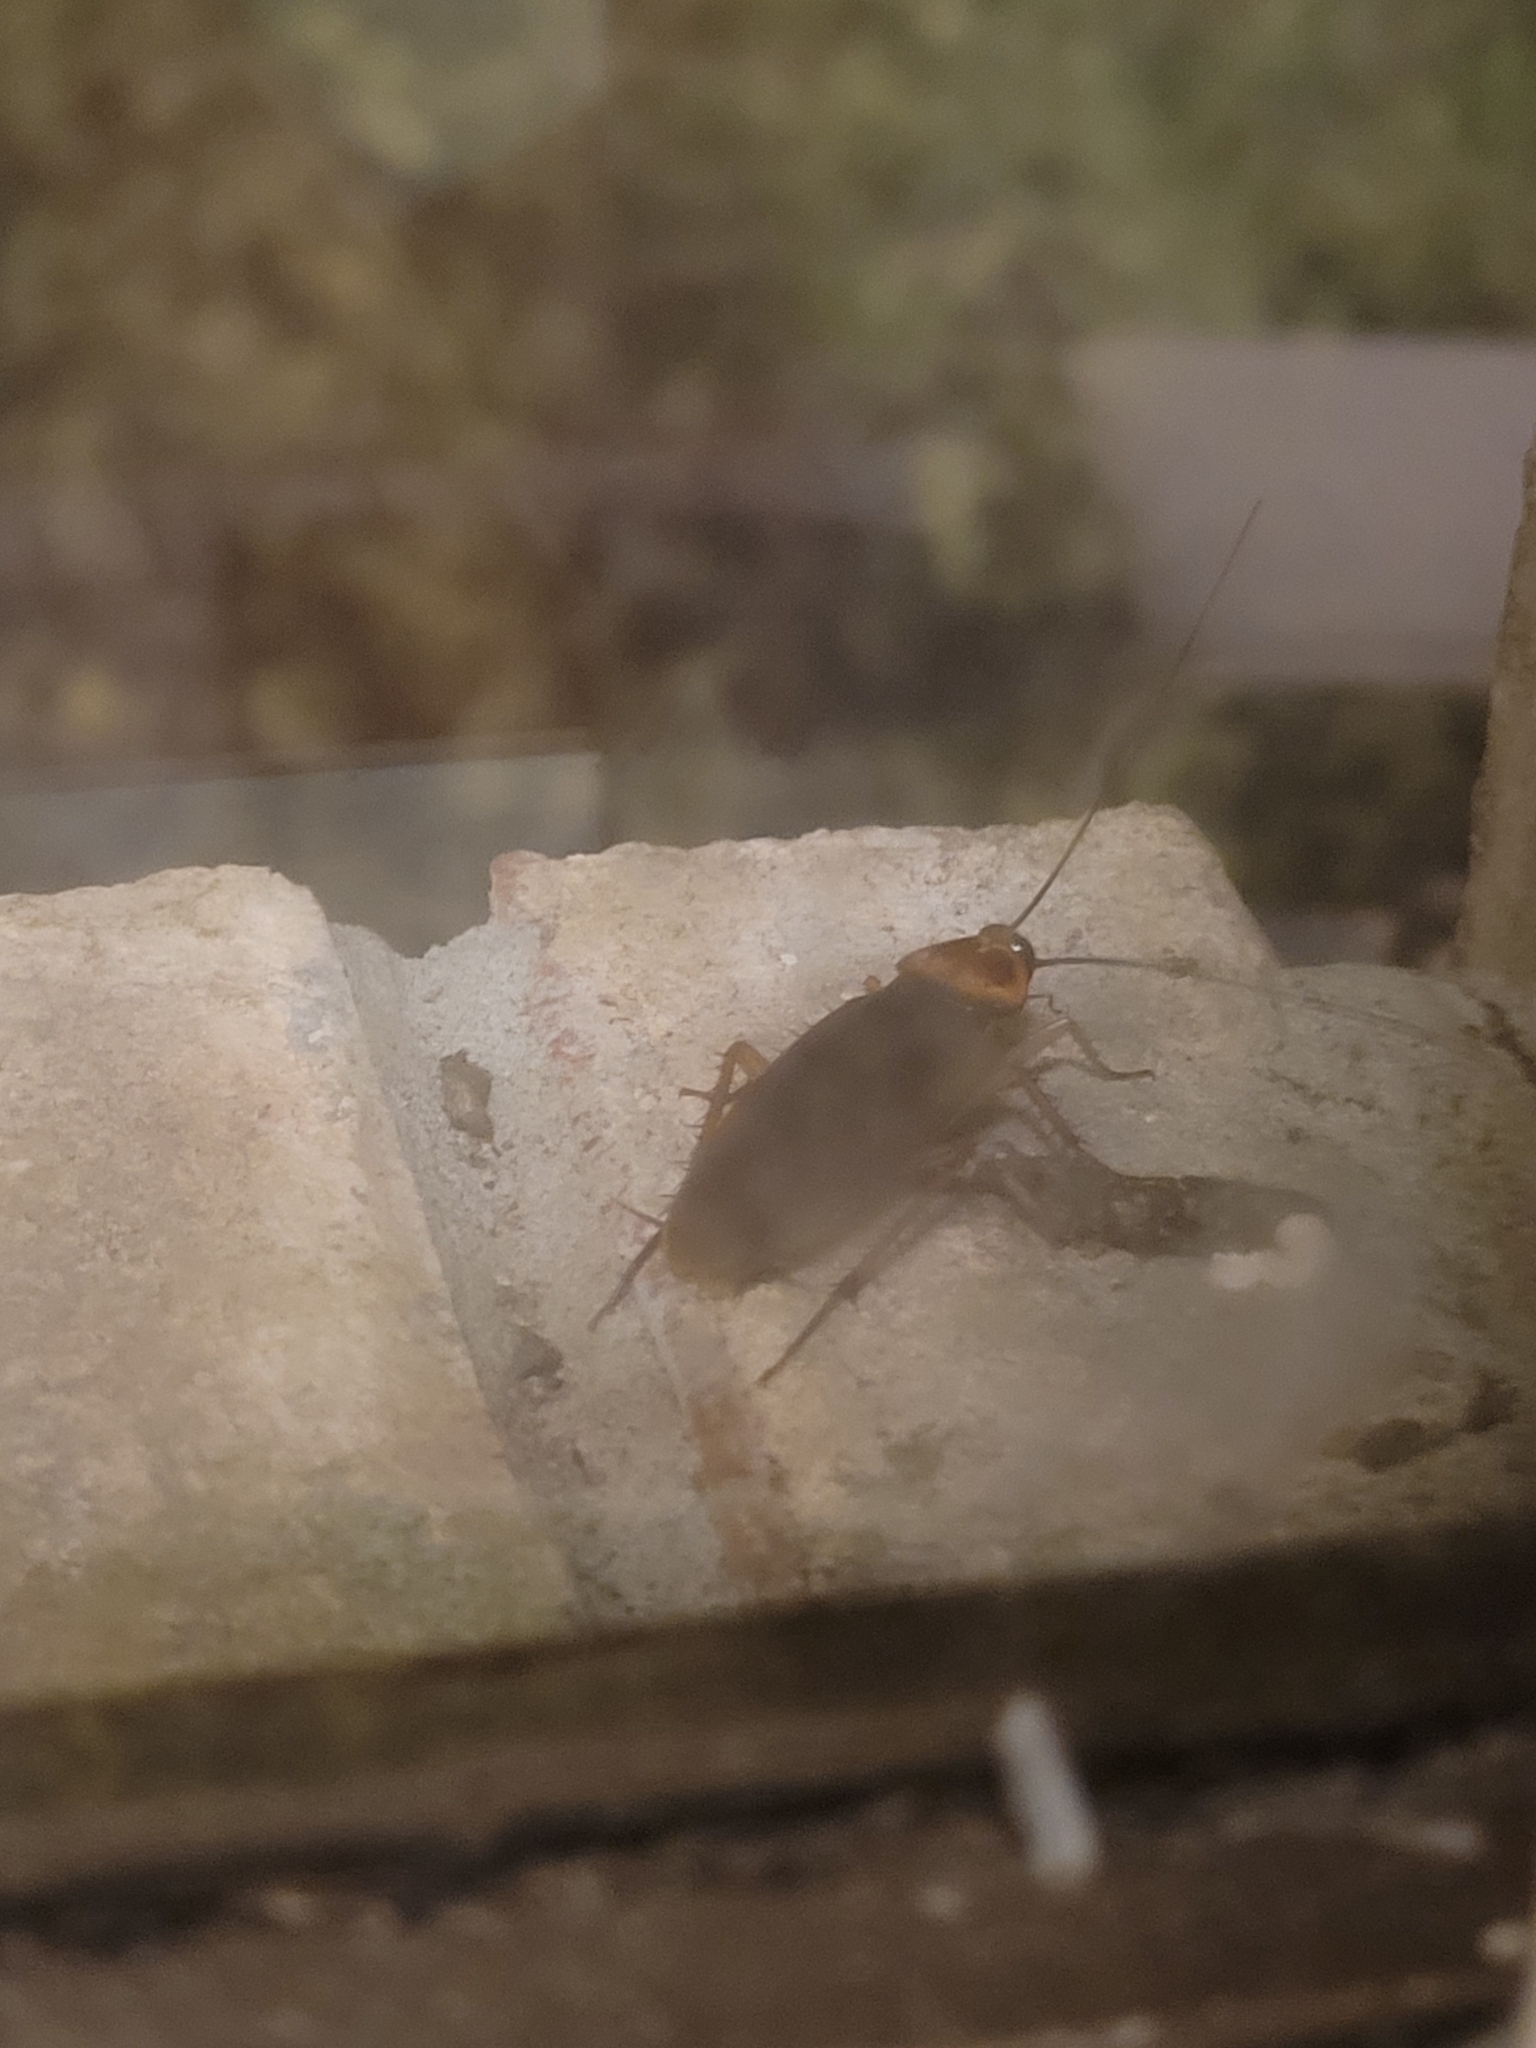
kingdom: Animalia
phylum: Arthropoda
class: Insecta
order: Blattodea
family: Blattidae
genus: Periplaneta
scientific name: Periplaneta americana
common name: American cockroach
